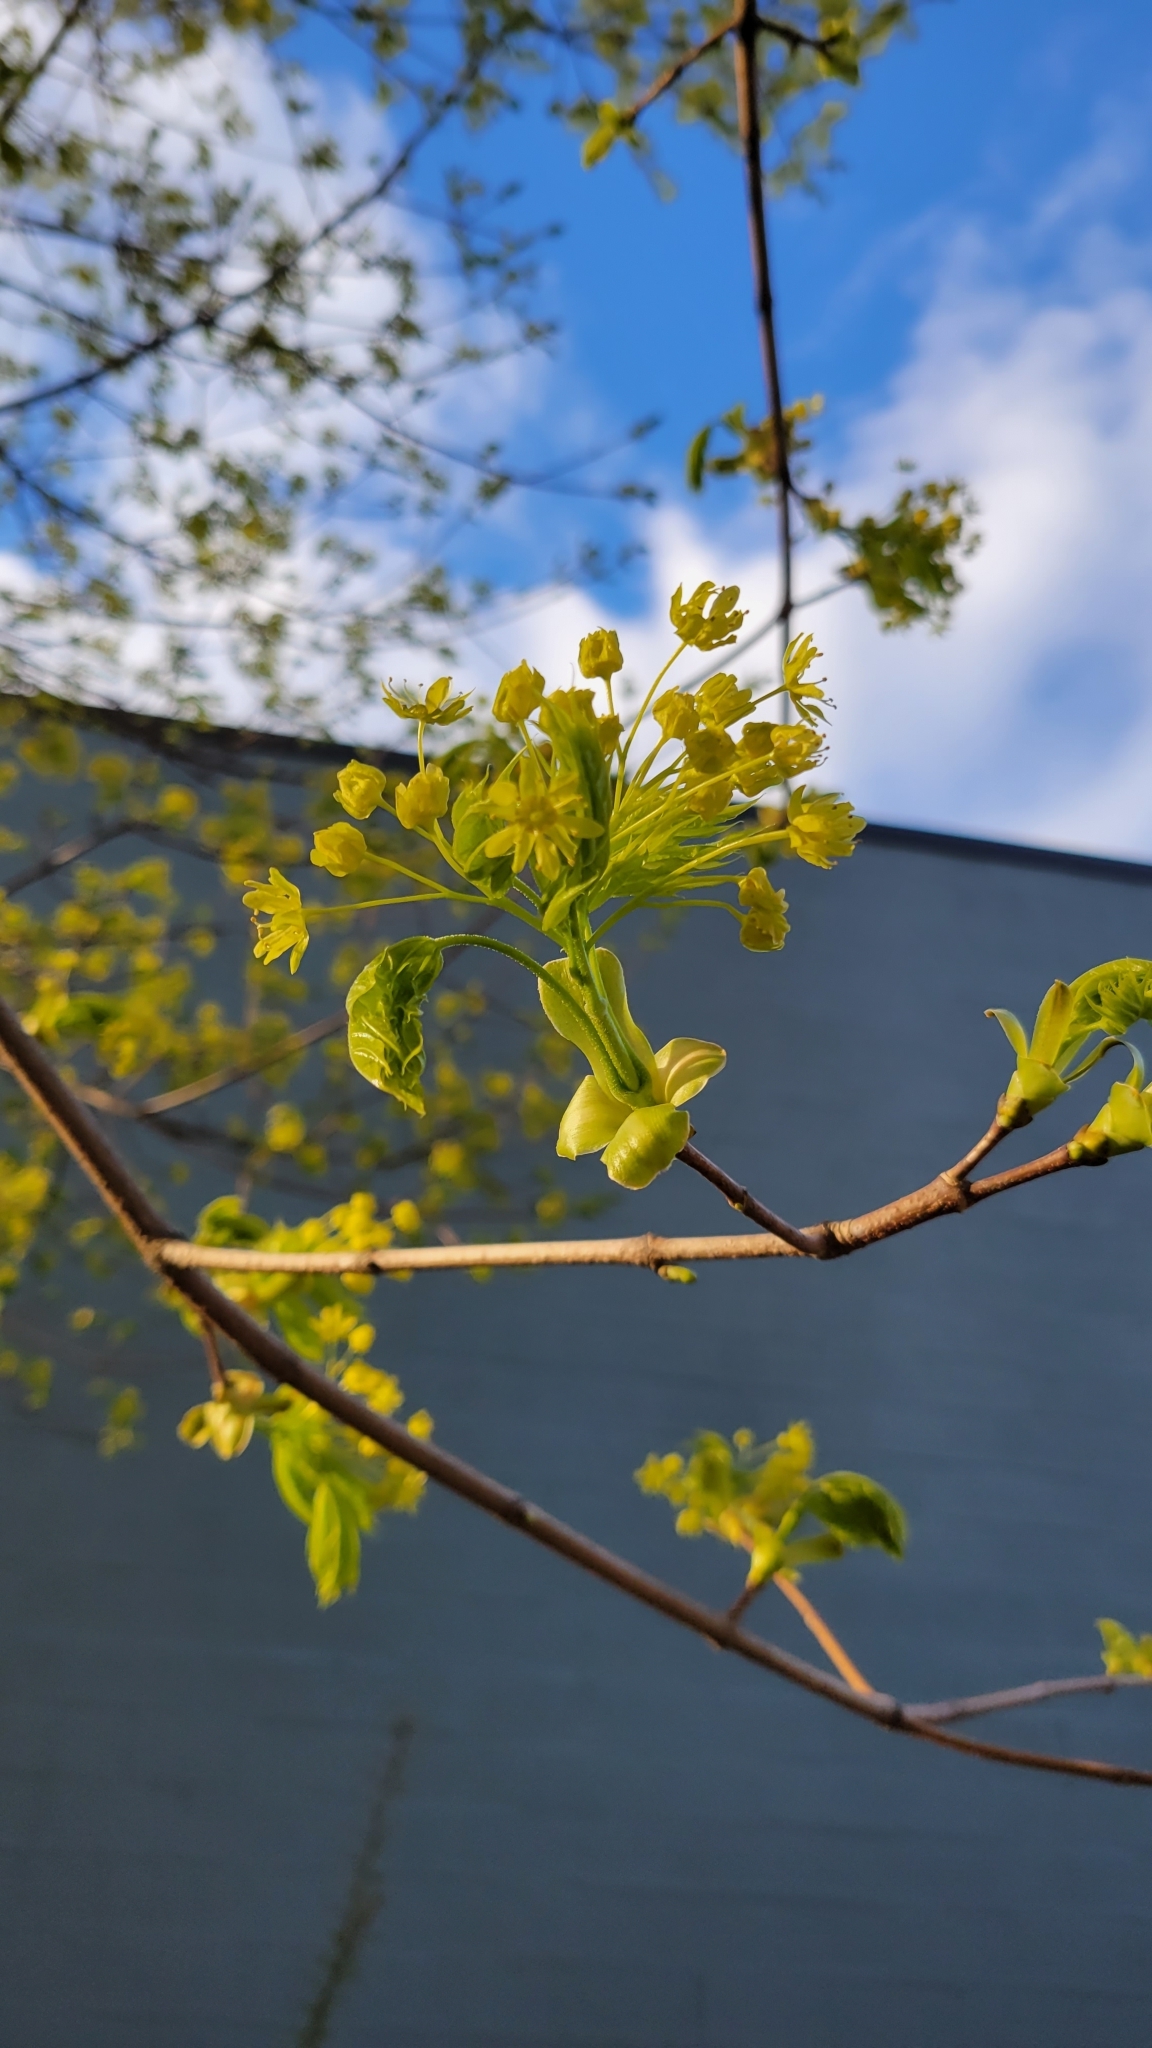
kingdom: Plantae
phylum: Tracheophyta
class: Magnoliopsida
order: Sapindales
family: Sapindaceae
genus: Acer
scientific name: Acer platanoides
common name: Norway maple
